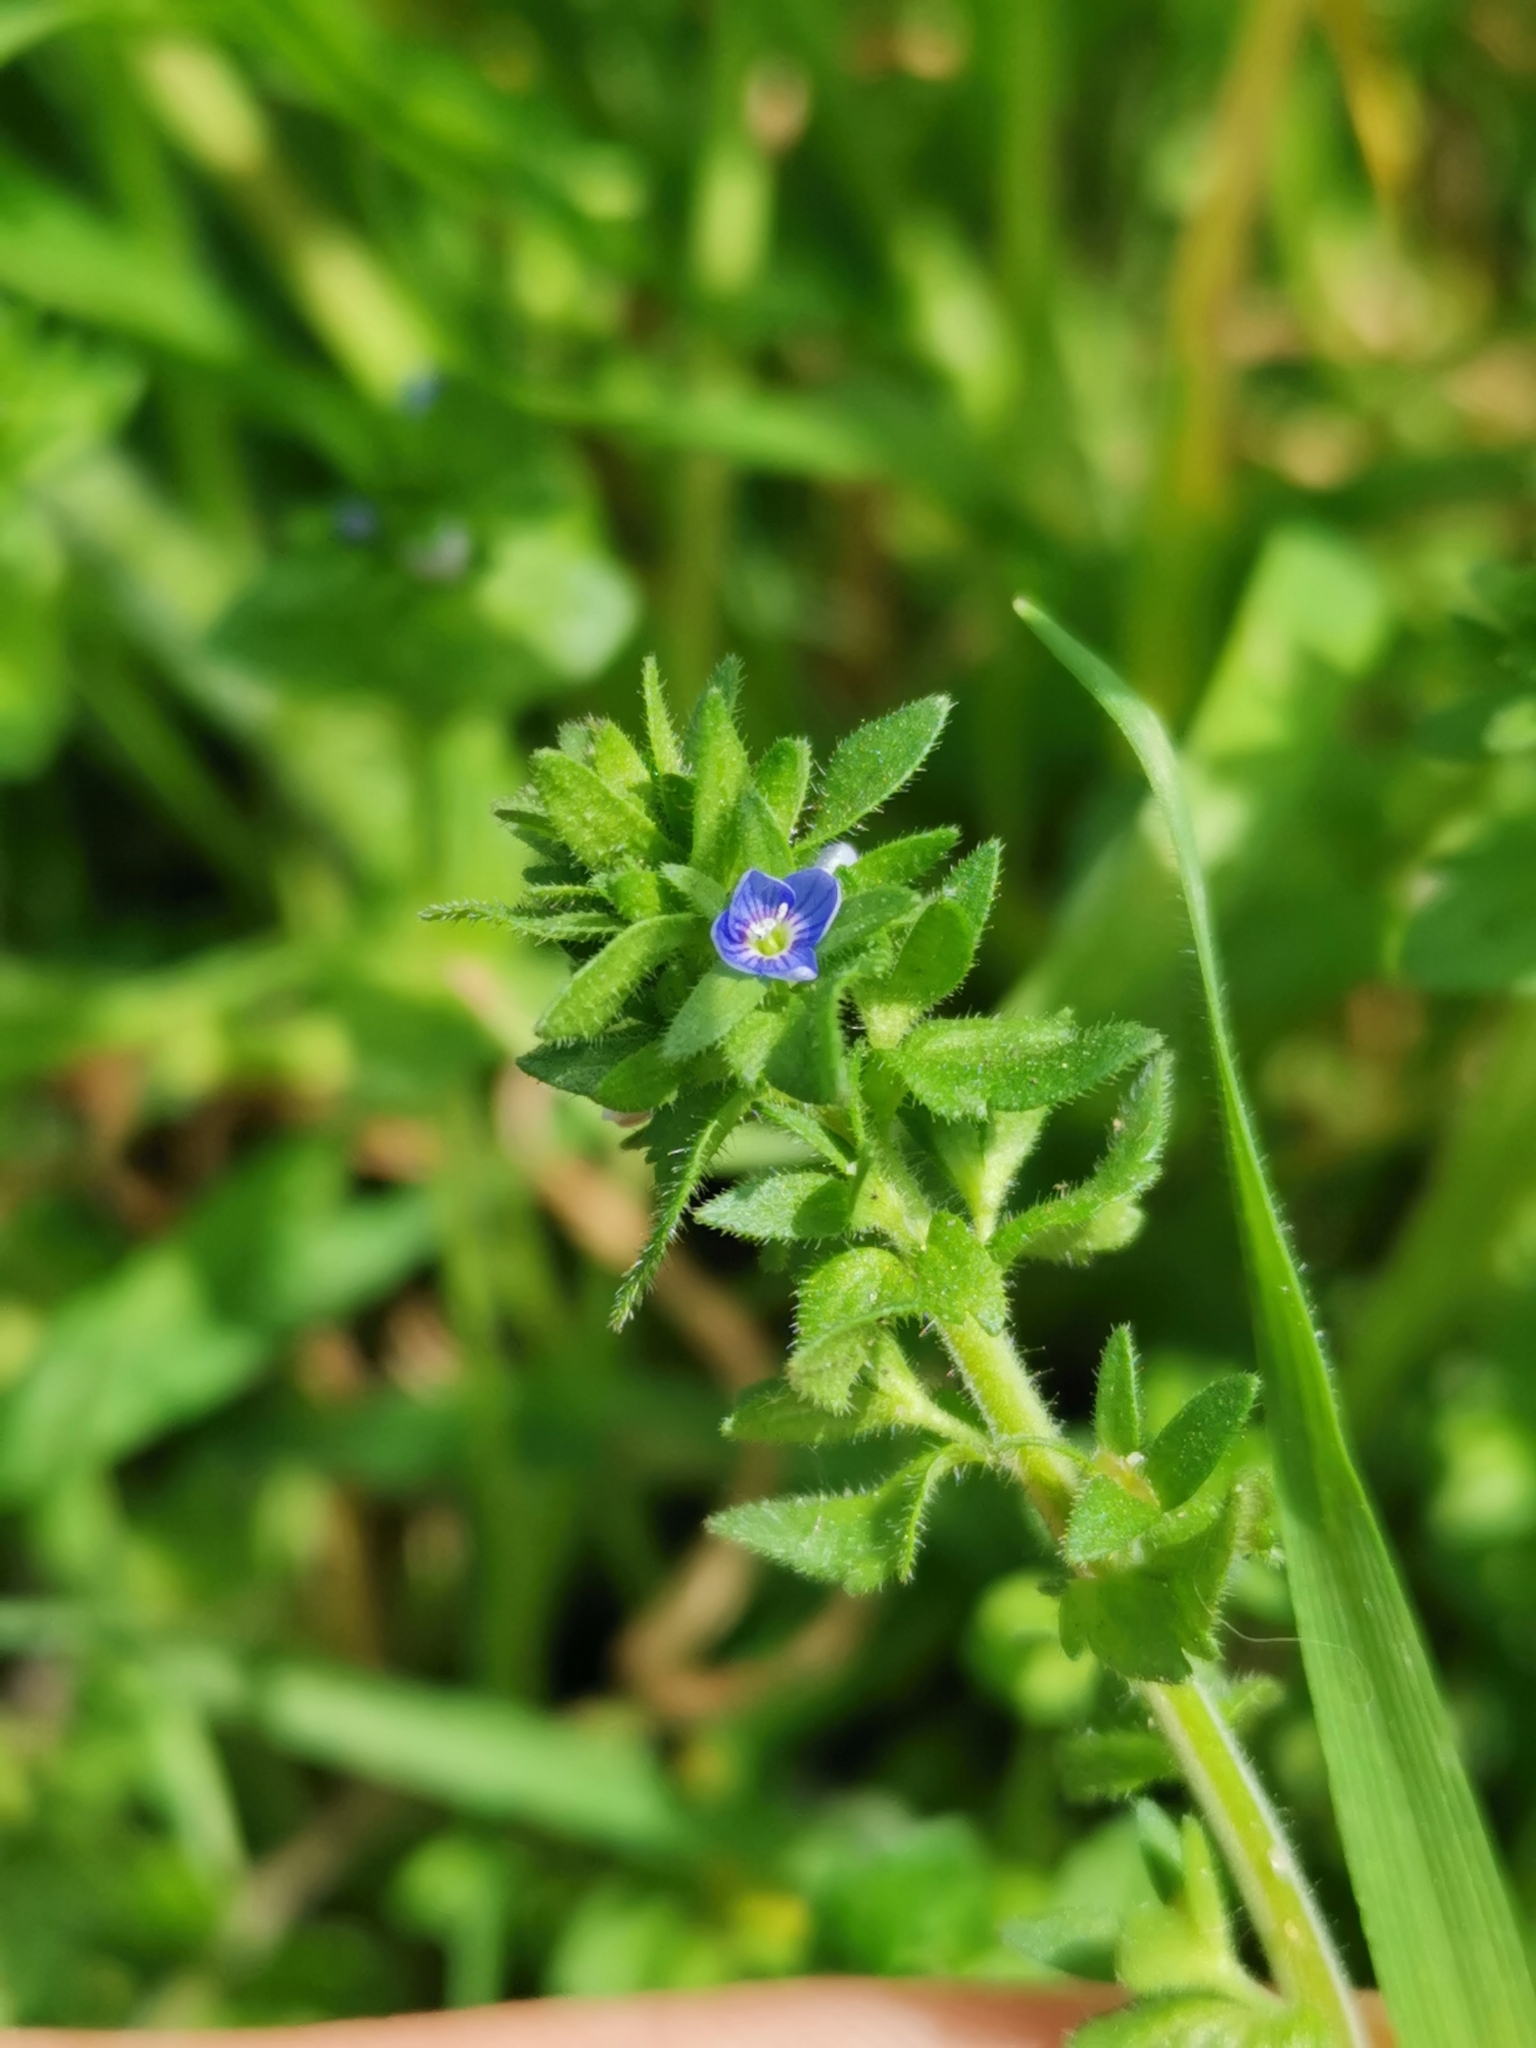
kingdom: Plantae
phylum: Tracheophyta
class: Magnoliopsida
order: Lamiales
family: Plantaginaceae
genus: Veronica
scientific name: Veronica arvensis
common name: Corn speedwell
